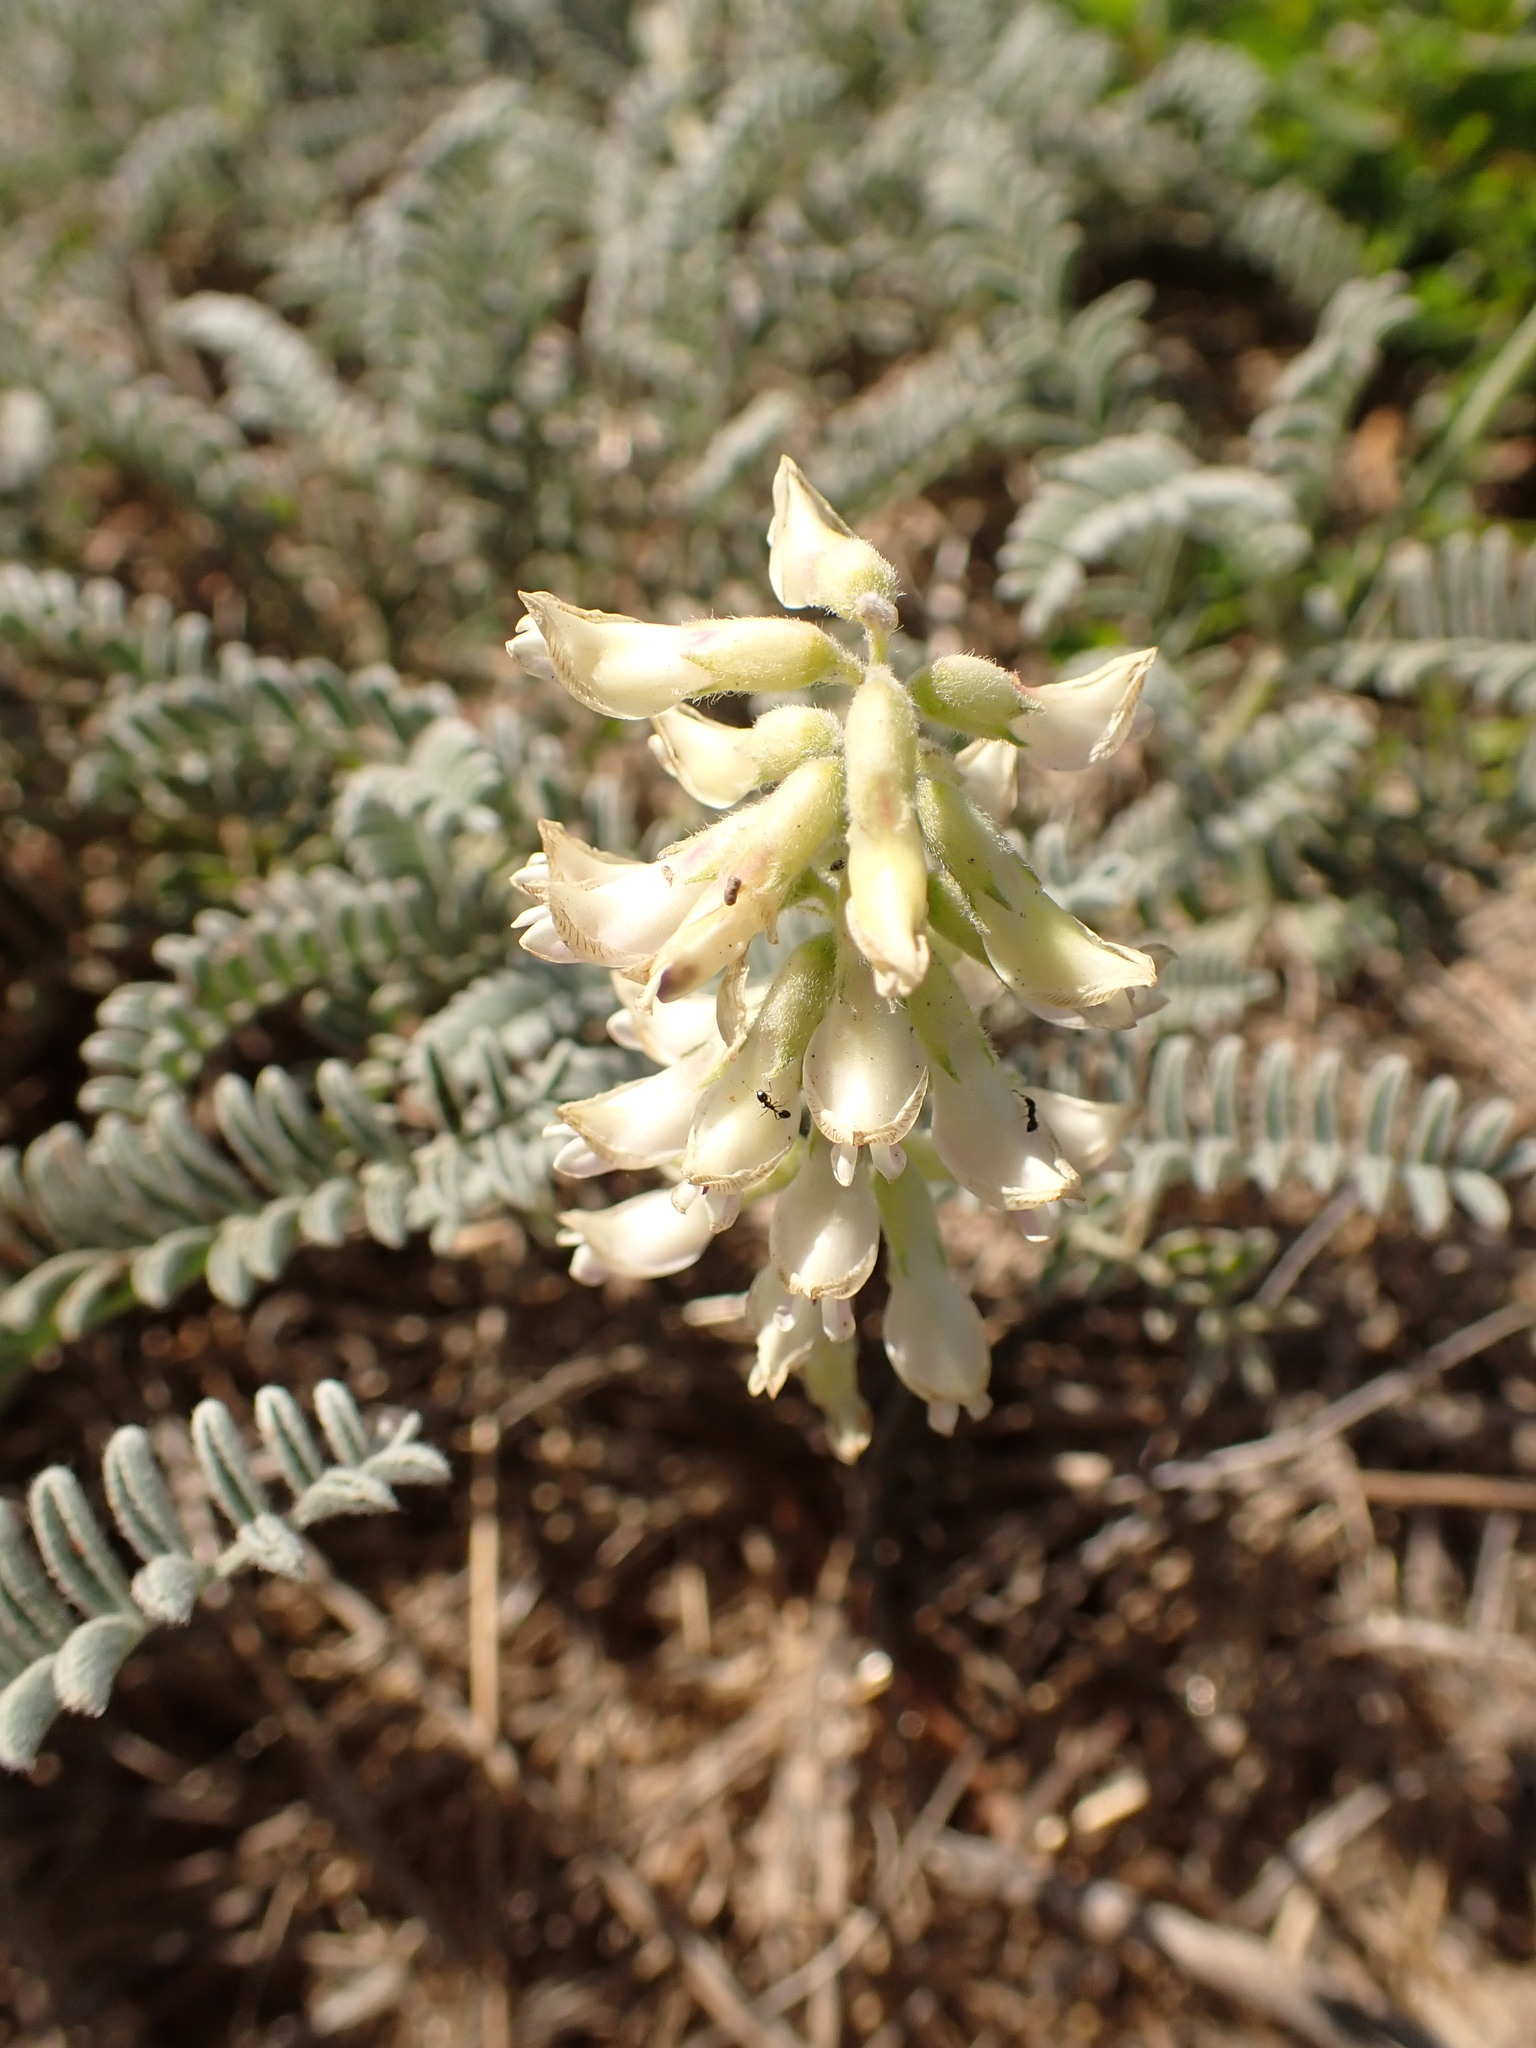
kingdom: Plantae
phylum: Tracheophyta
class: Magnoliopsida
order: Fabales
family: Fabaceae
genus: Astragalus
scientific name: Astragalus nuttallii
